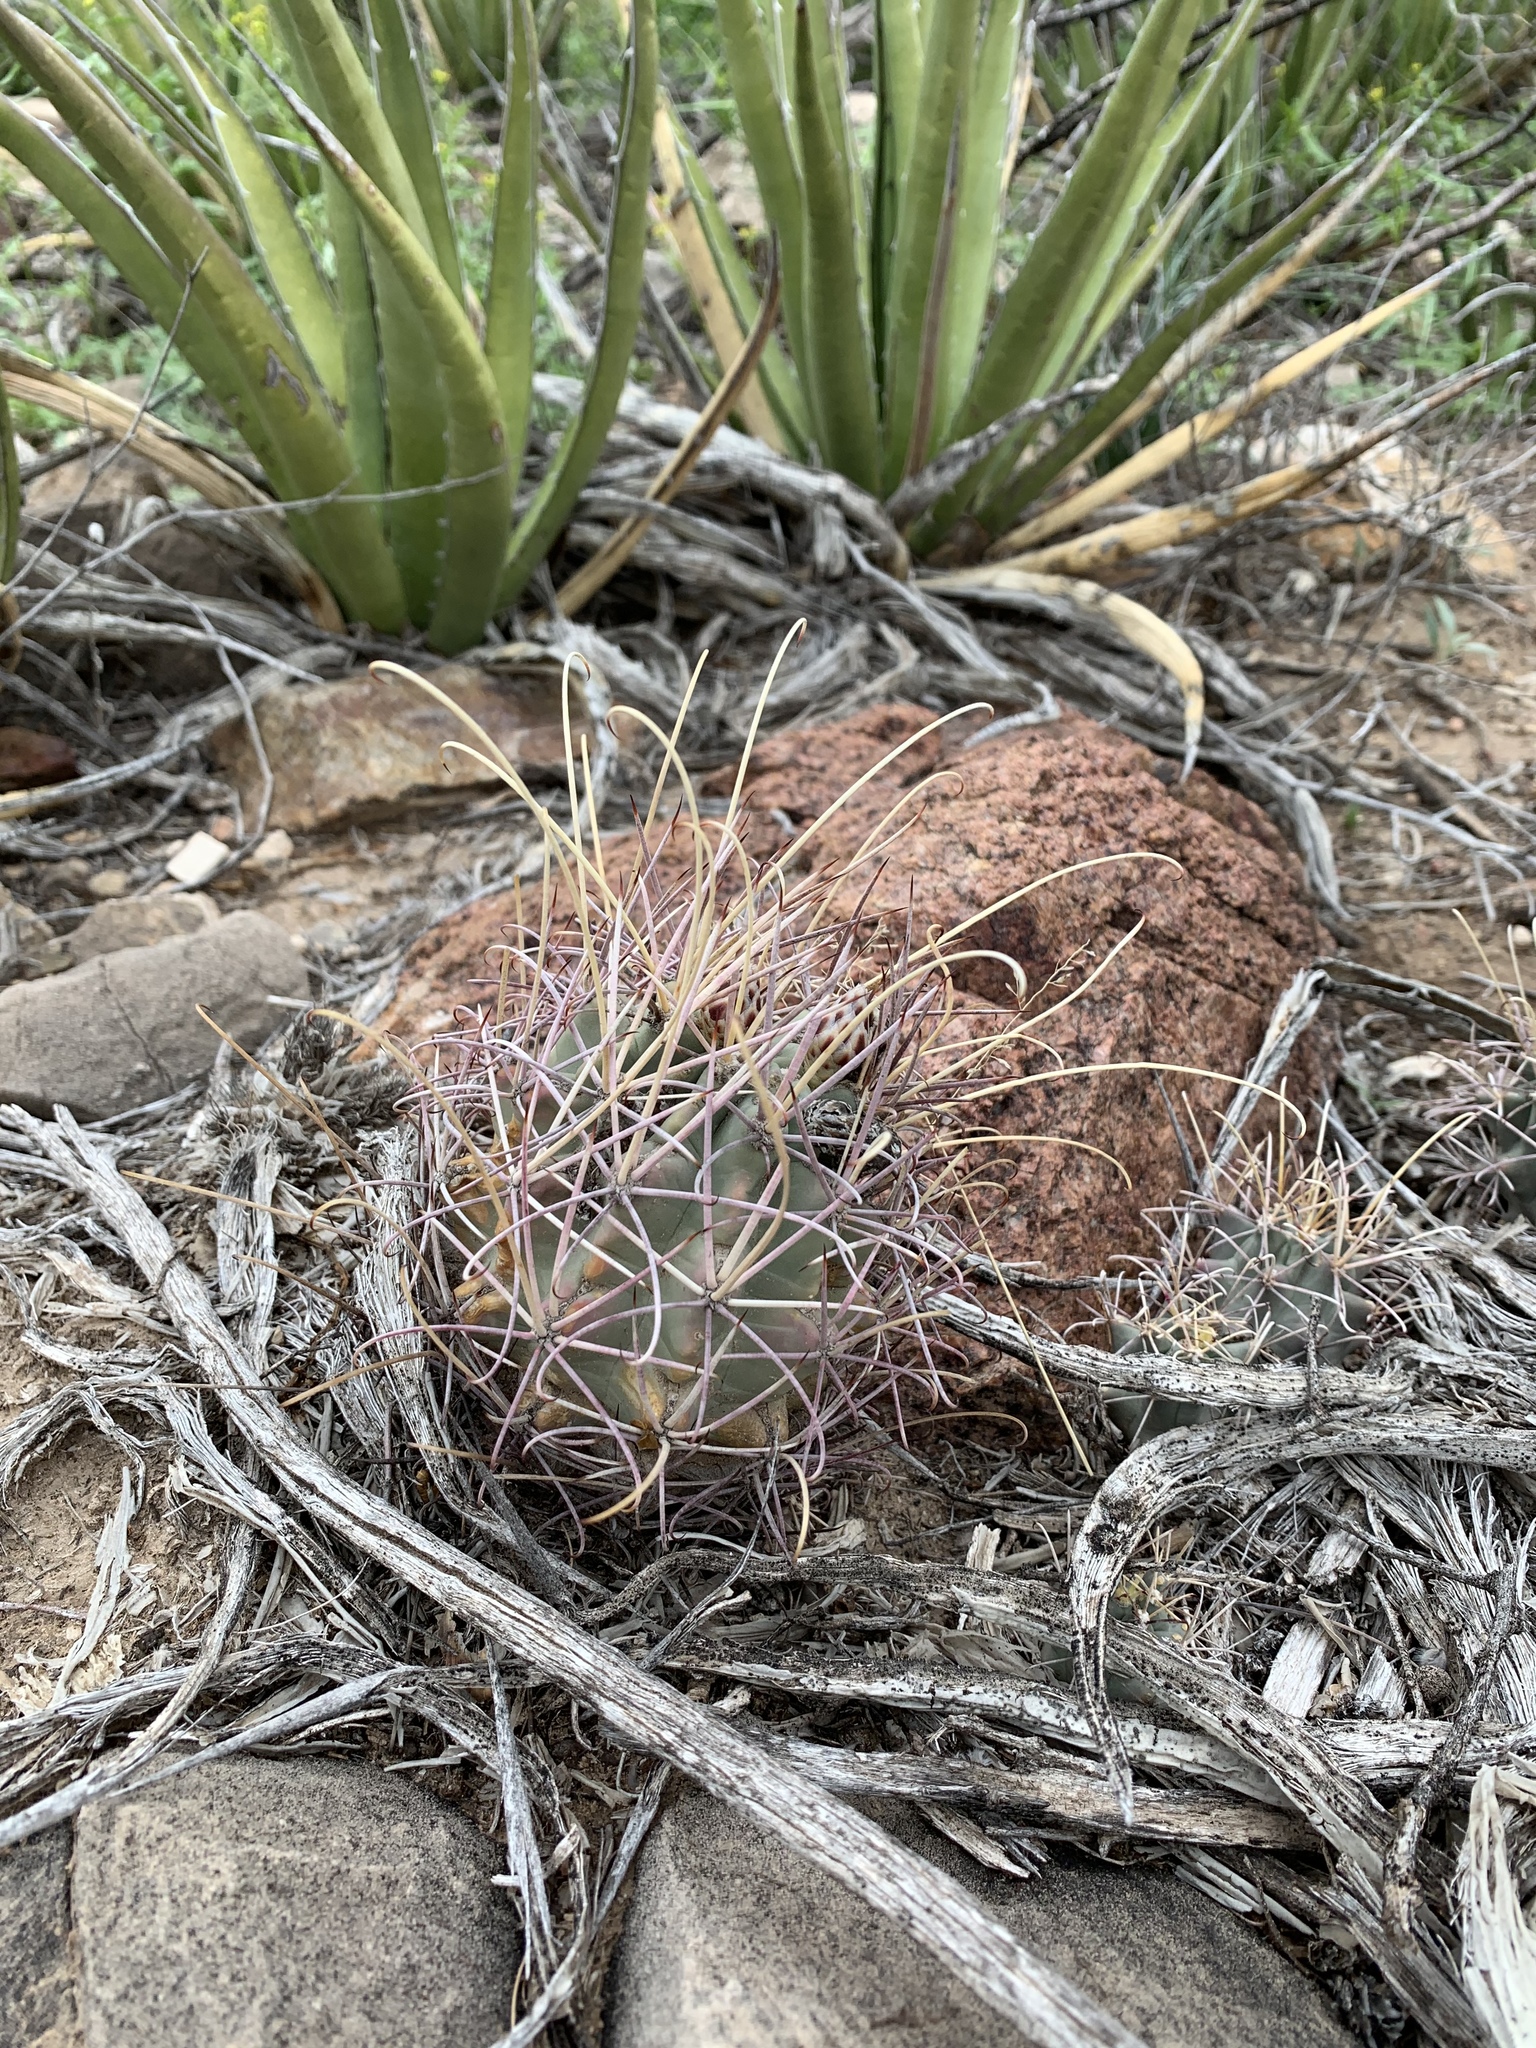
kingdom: Plantae
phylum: Tracheophyta
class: Magnoliopsida
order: Caryophyllales
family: Cactaceae
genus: Ferocactus
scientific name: Ferocactus uncinatus
